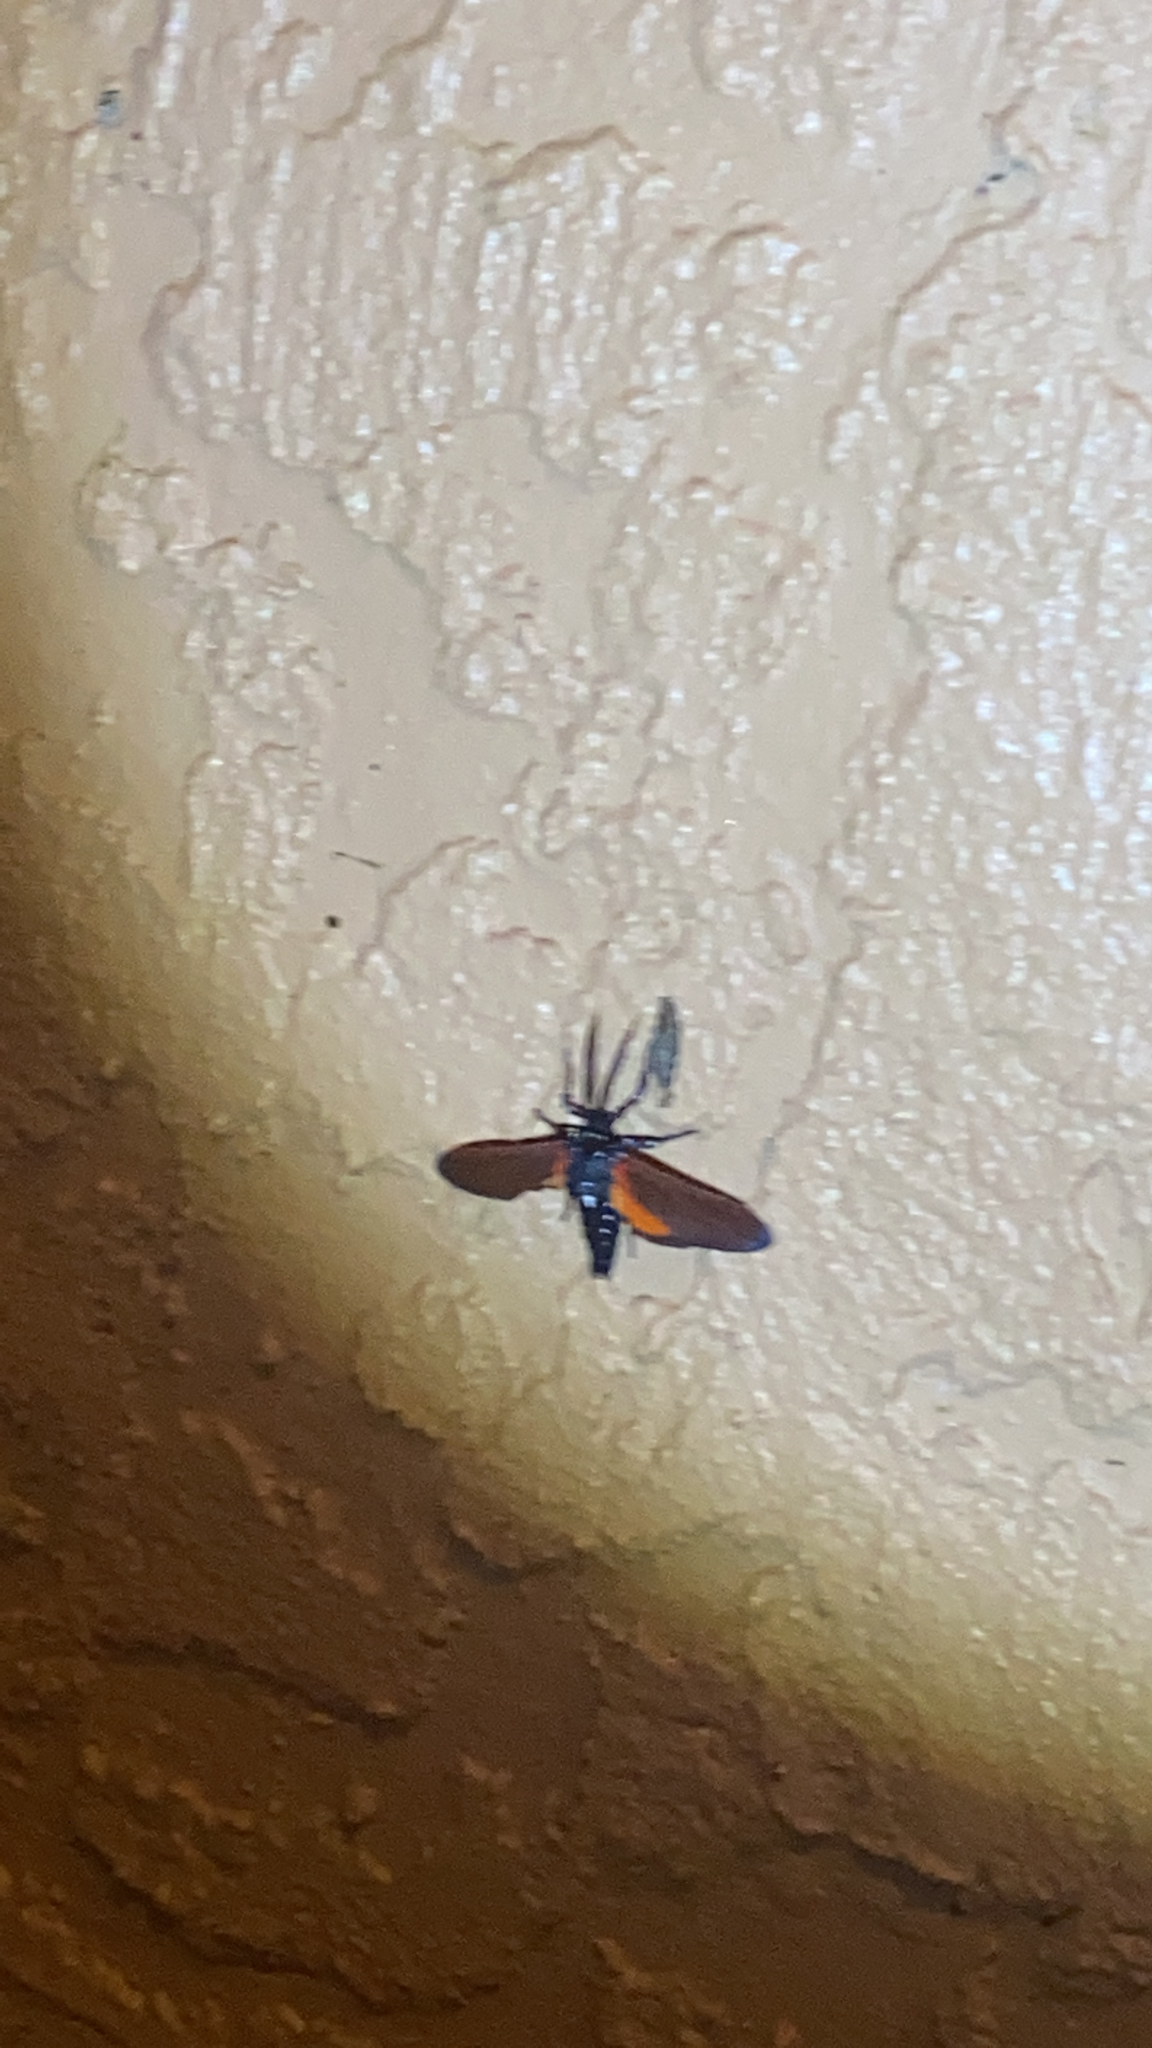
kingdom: Animalia
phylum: Arthropoda
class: Insecta
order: Lepidoptera
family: Erebidae
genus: Empyreuma
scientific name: Empyreuma pugione
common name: Spotted oleander caterpillar moth
